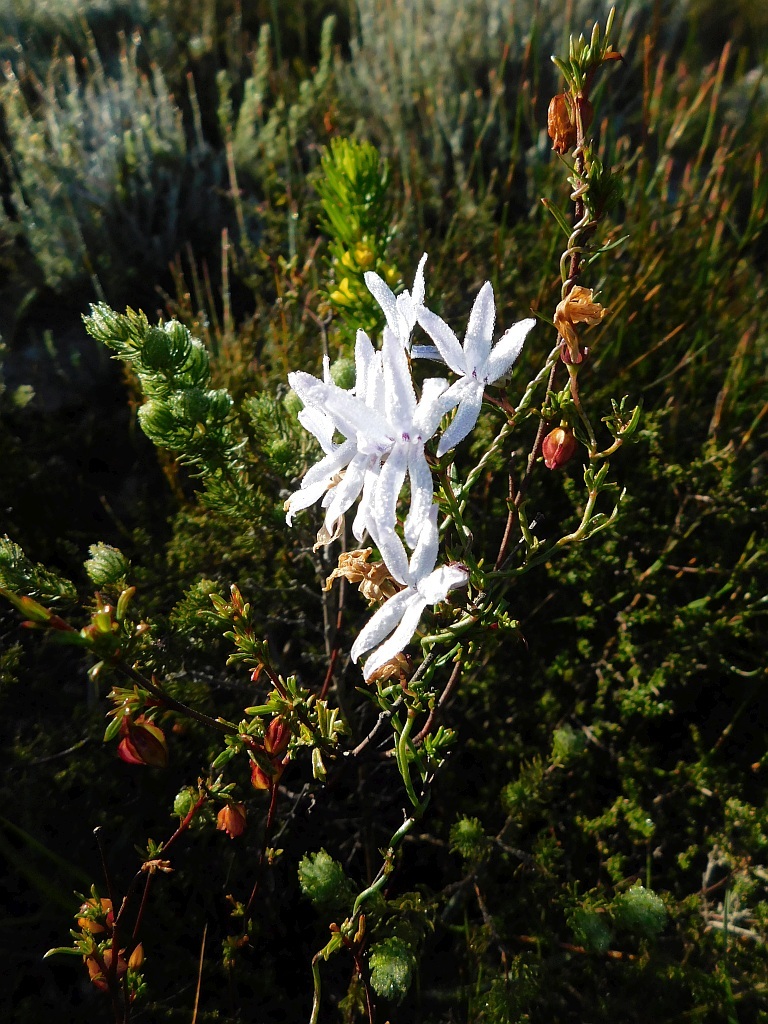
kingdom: Plantae
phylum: Tracheophyta
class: Magnoliopsida
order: Asterales
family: Campanulaceae
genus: Cyphia
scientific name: Cyphia volubilis
